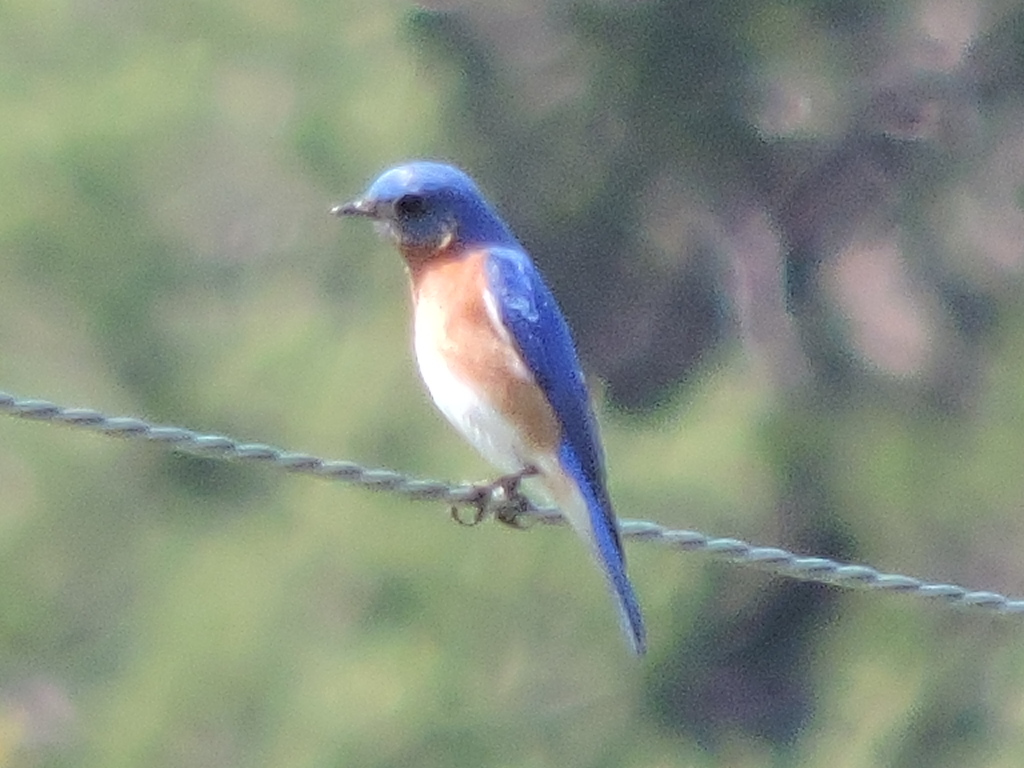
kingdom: Animalia
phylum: Chordata
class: Aves
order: Passeriformes
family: Turdidae
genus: Sialia
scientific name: Sialia sialis
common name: Eastern bluebird
